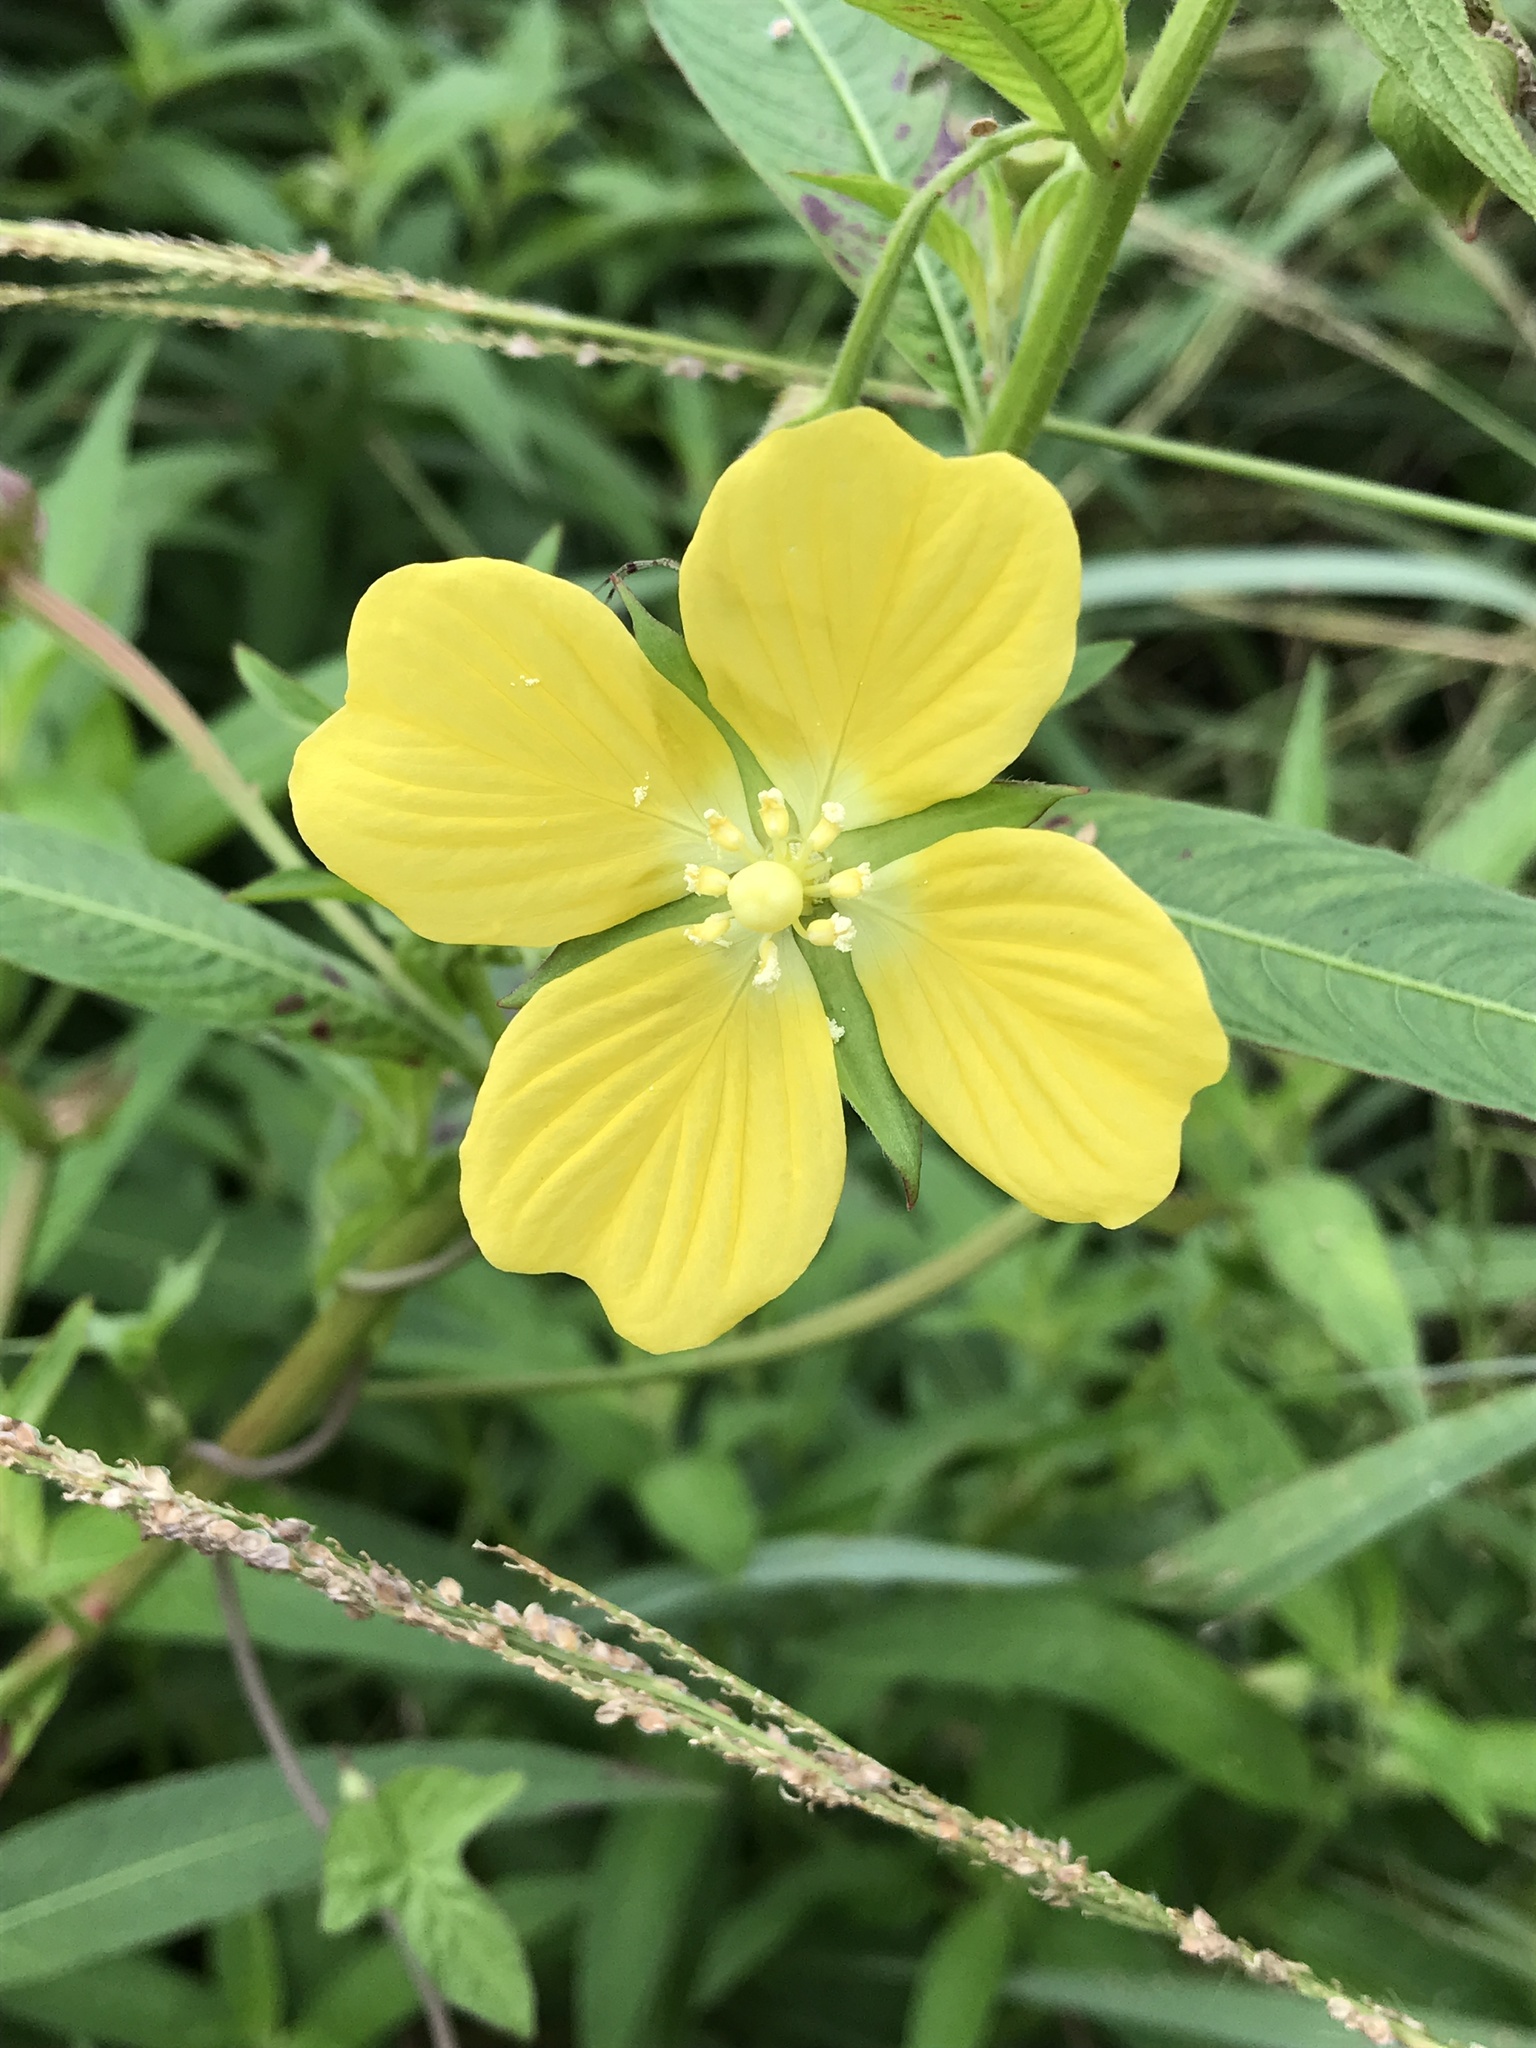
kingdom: Plantae
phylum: Tracheophyta
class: Magnoliopsida
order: Myrtales
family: Onagraceae
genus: Ludwigia
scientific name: Ludwigia octovalvis
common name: Water-primrose
